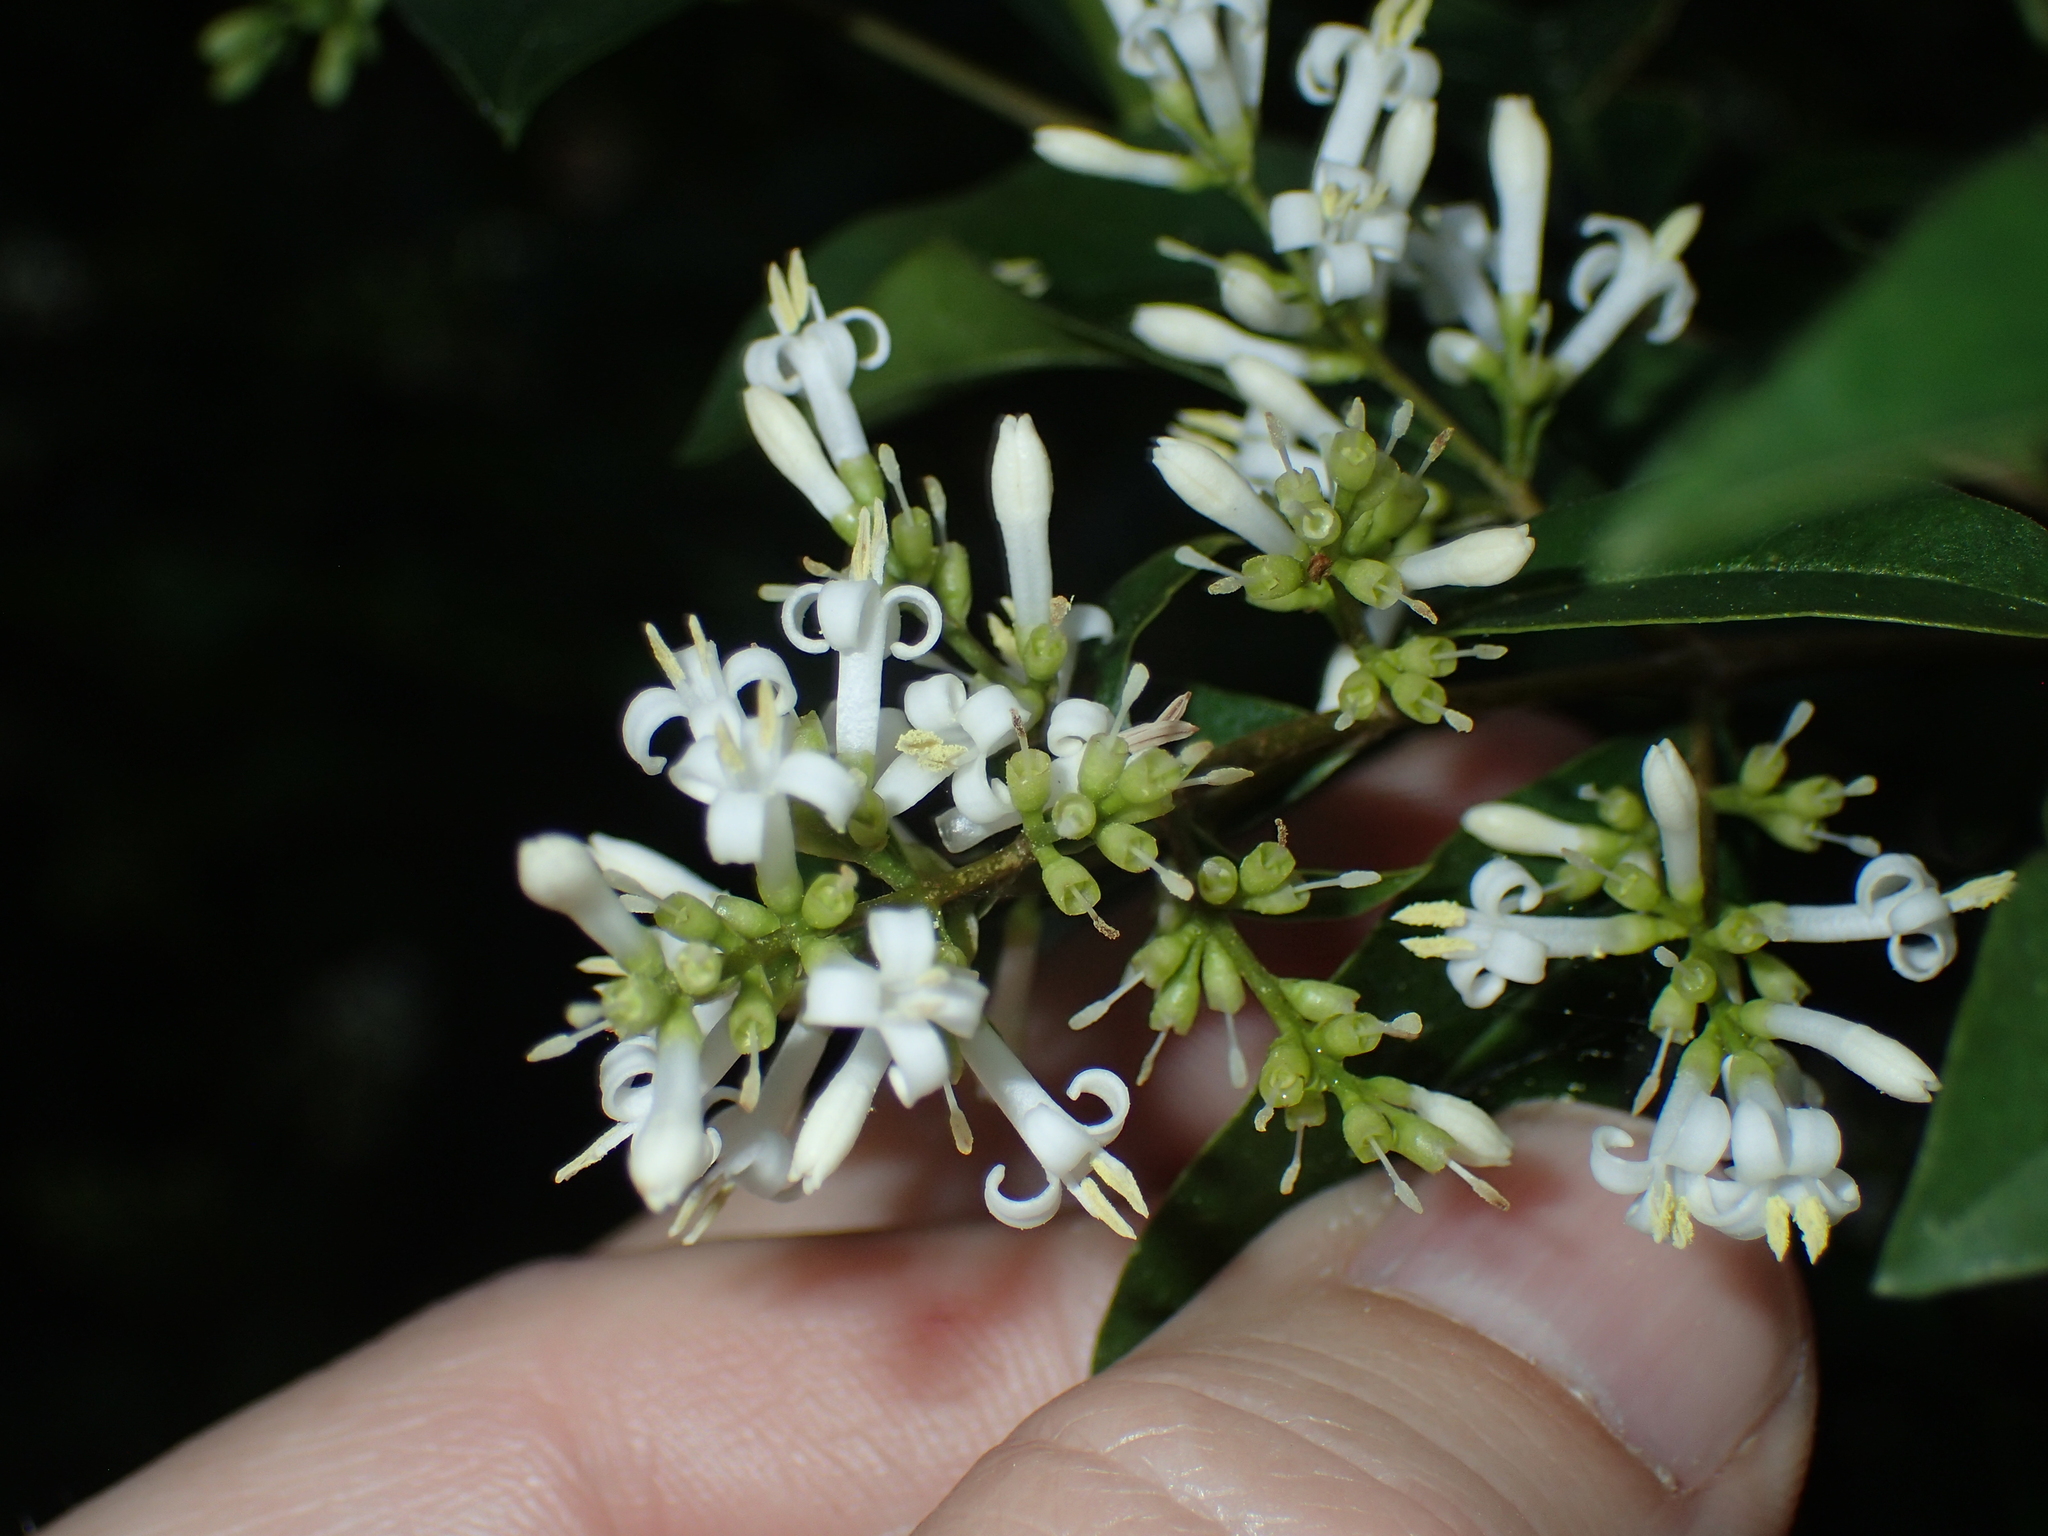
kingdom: Plantae
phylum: Tracheophyta
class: Magnoliopsida
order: Lamiales
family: Oleaceae
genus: Ligustrum
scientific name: Ligustrum ovalifolium
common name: California privet
